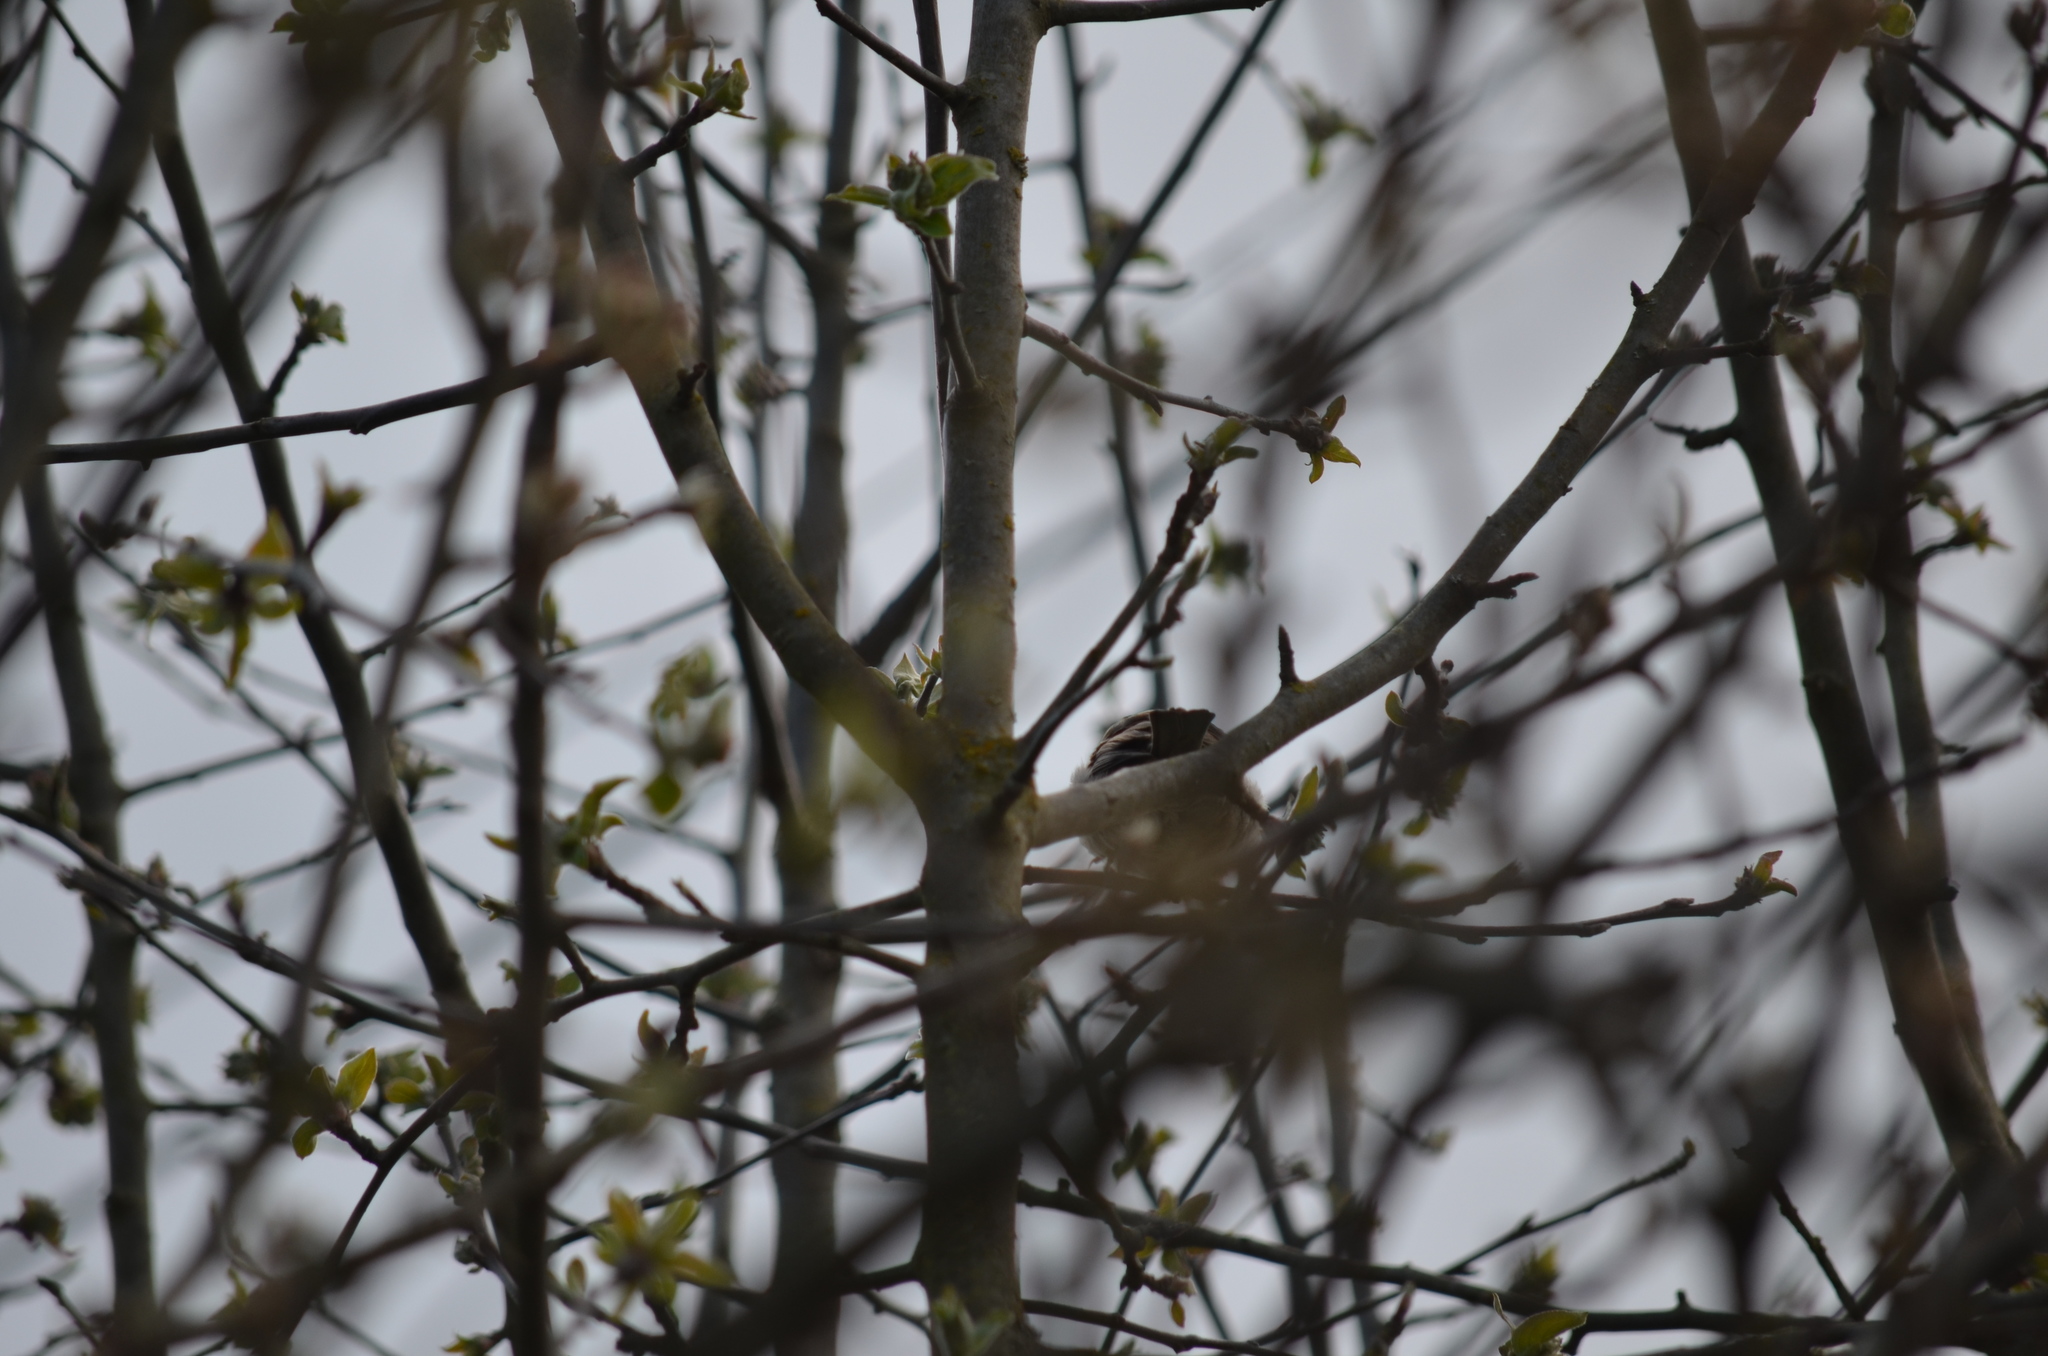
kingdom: Animalia
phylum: Chordata
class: Aves
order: Passeriformes
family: Passeridae
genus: Passer
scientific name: Passer domesticus
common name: House sparrow
